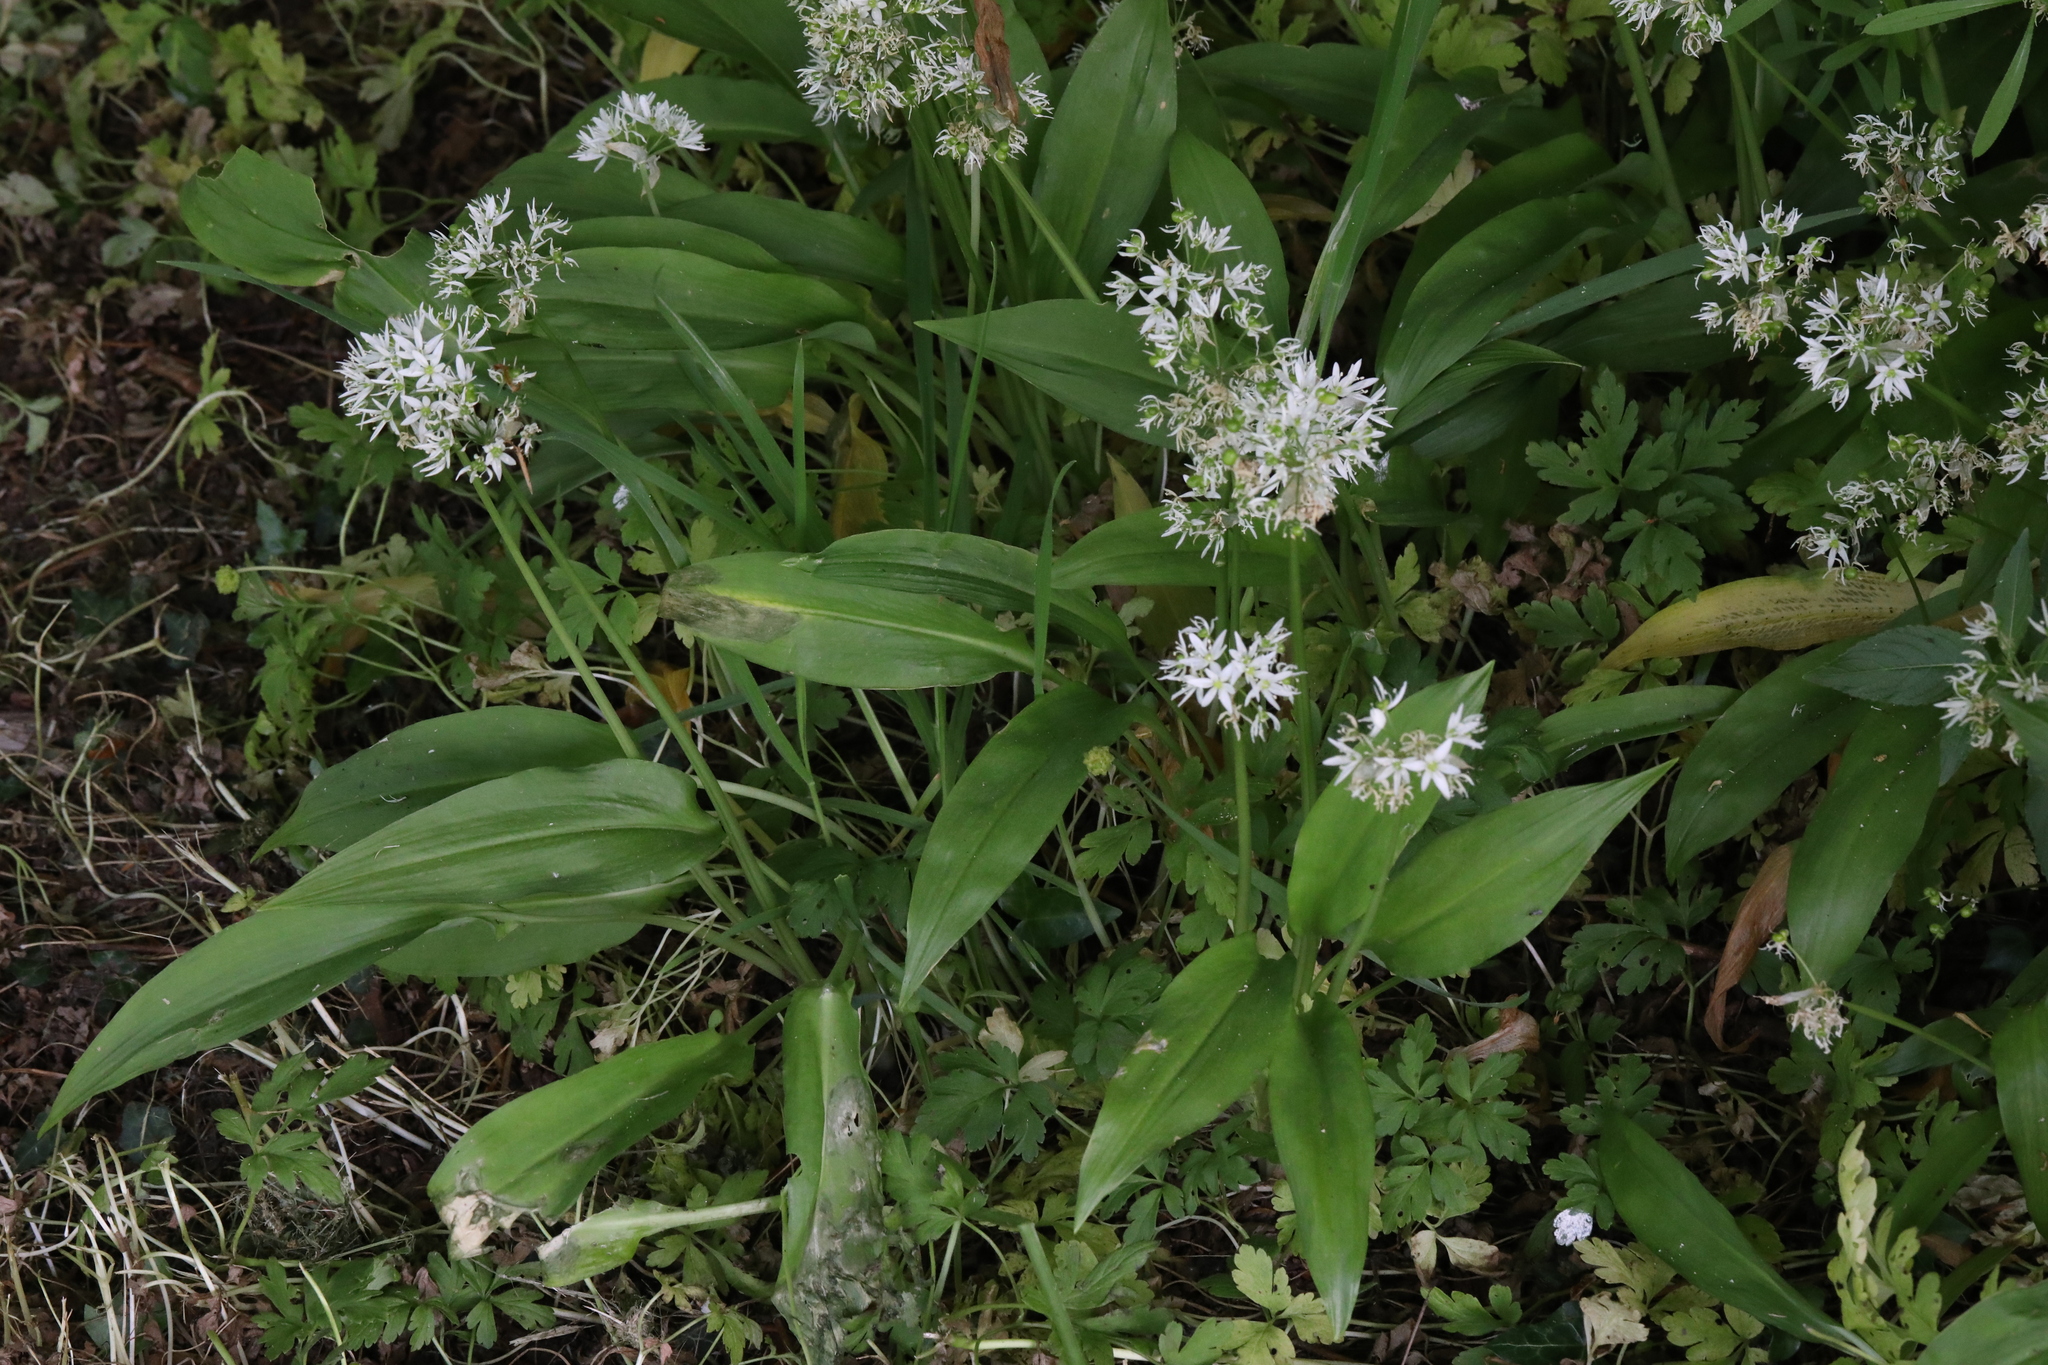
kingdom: Plantae
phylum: Tracheophyta
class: Liliopsida
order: Asparagales
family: Amaryllidaceae
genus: Allium
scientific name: Allium ursinum
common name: Ramsons
